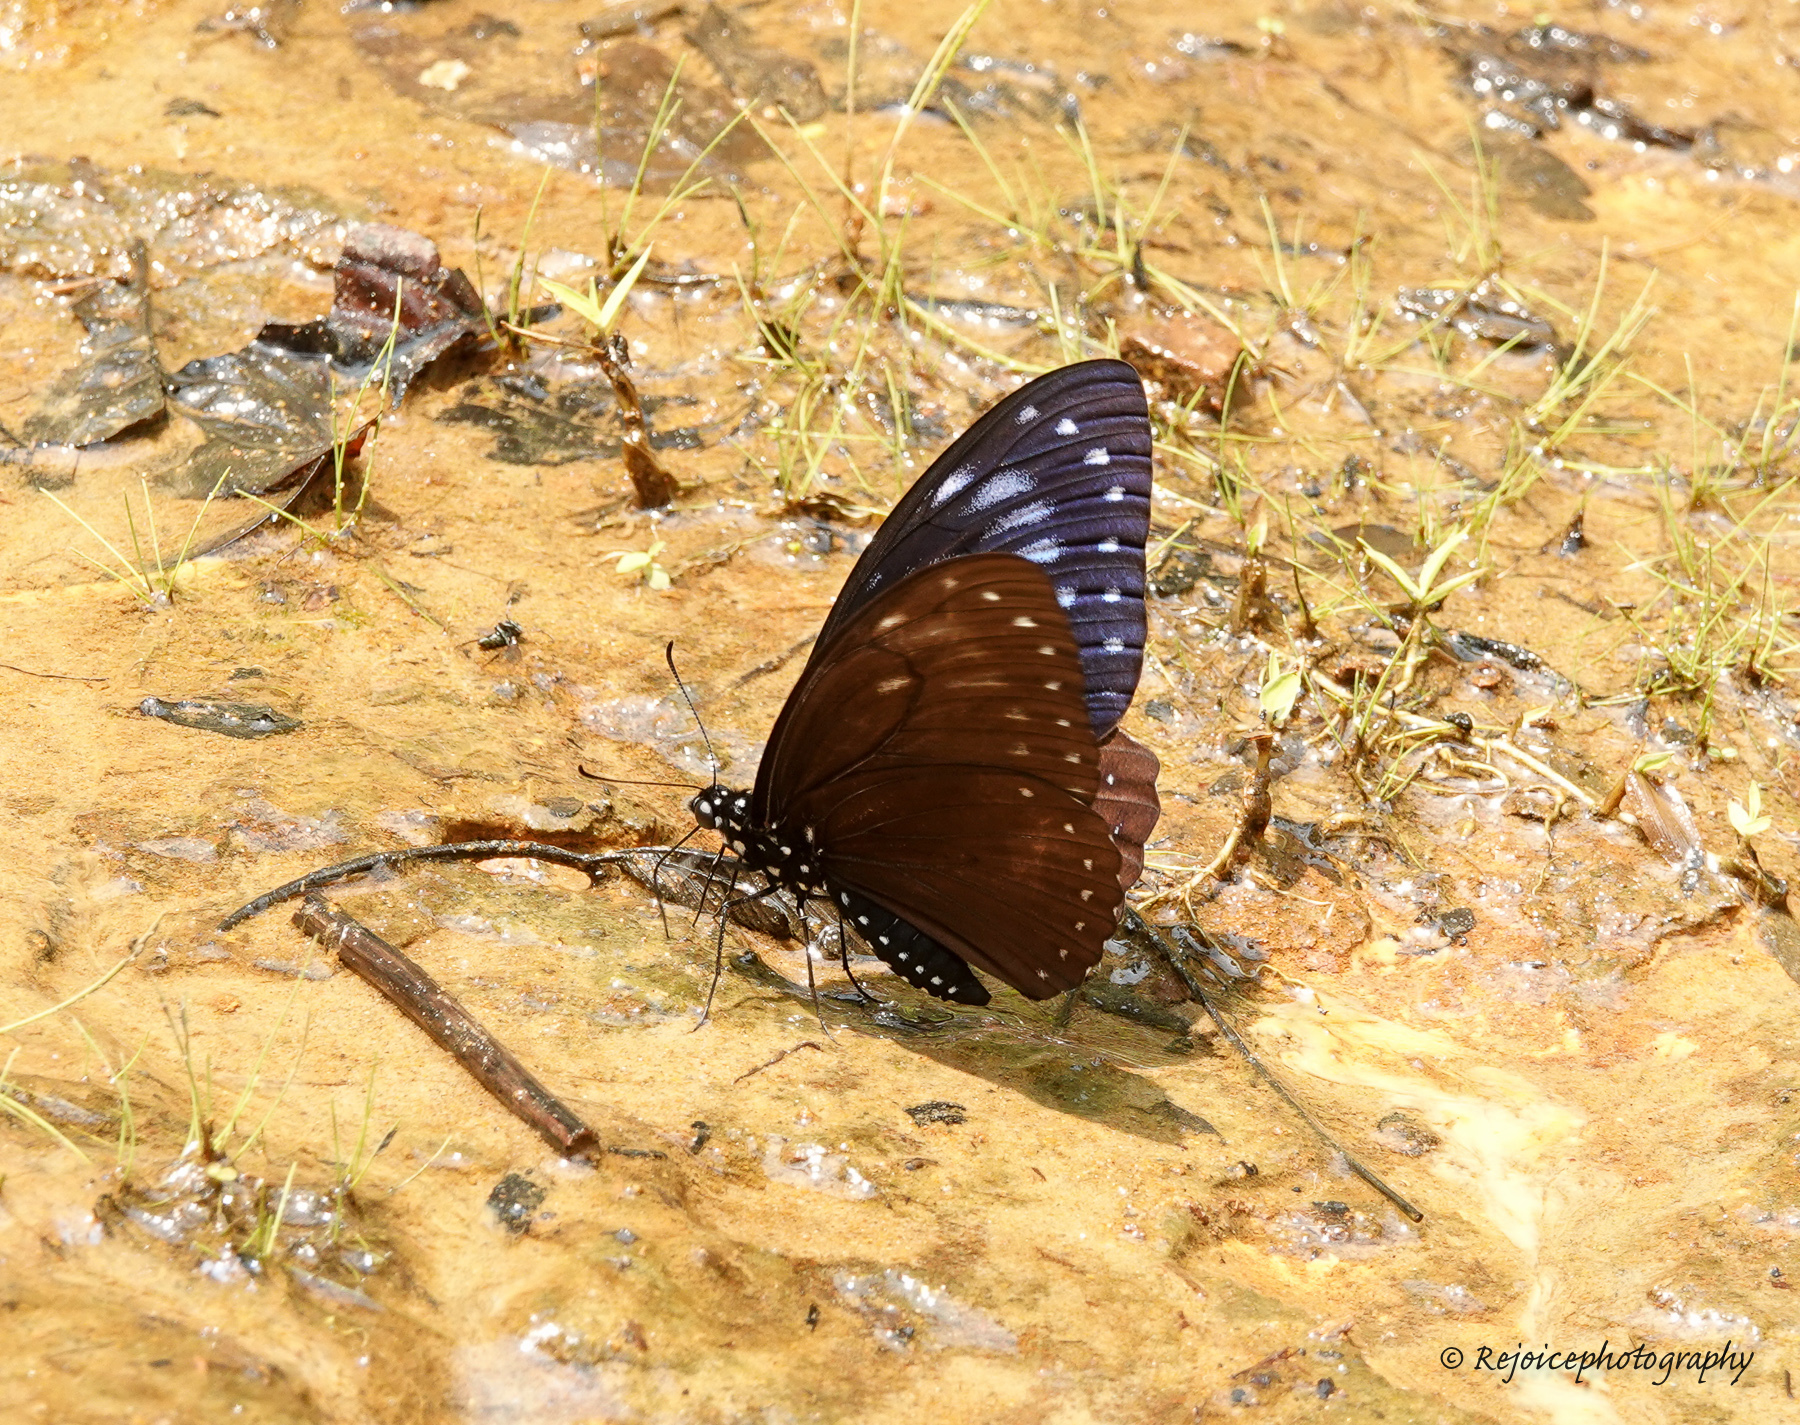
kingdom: Animalia
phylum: Arthropoda
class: Insecta
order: Lepidoptera
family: Nymphalidae
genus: Euploea
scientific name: Euploea mulciber
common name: Striped blue crow butterfly
